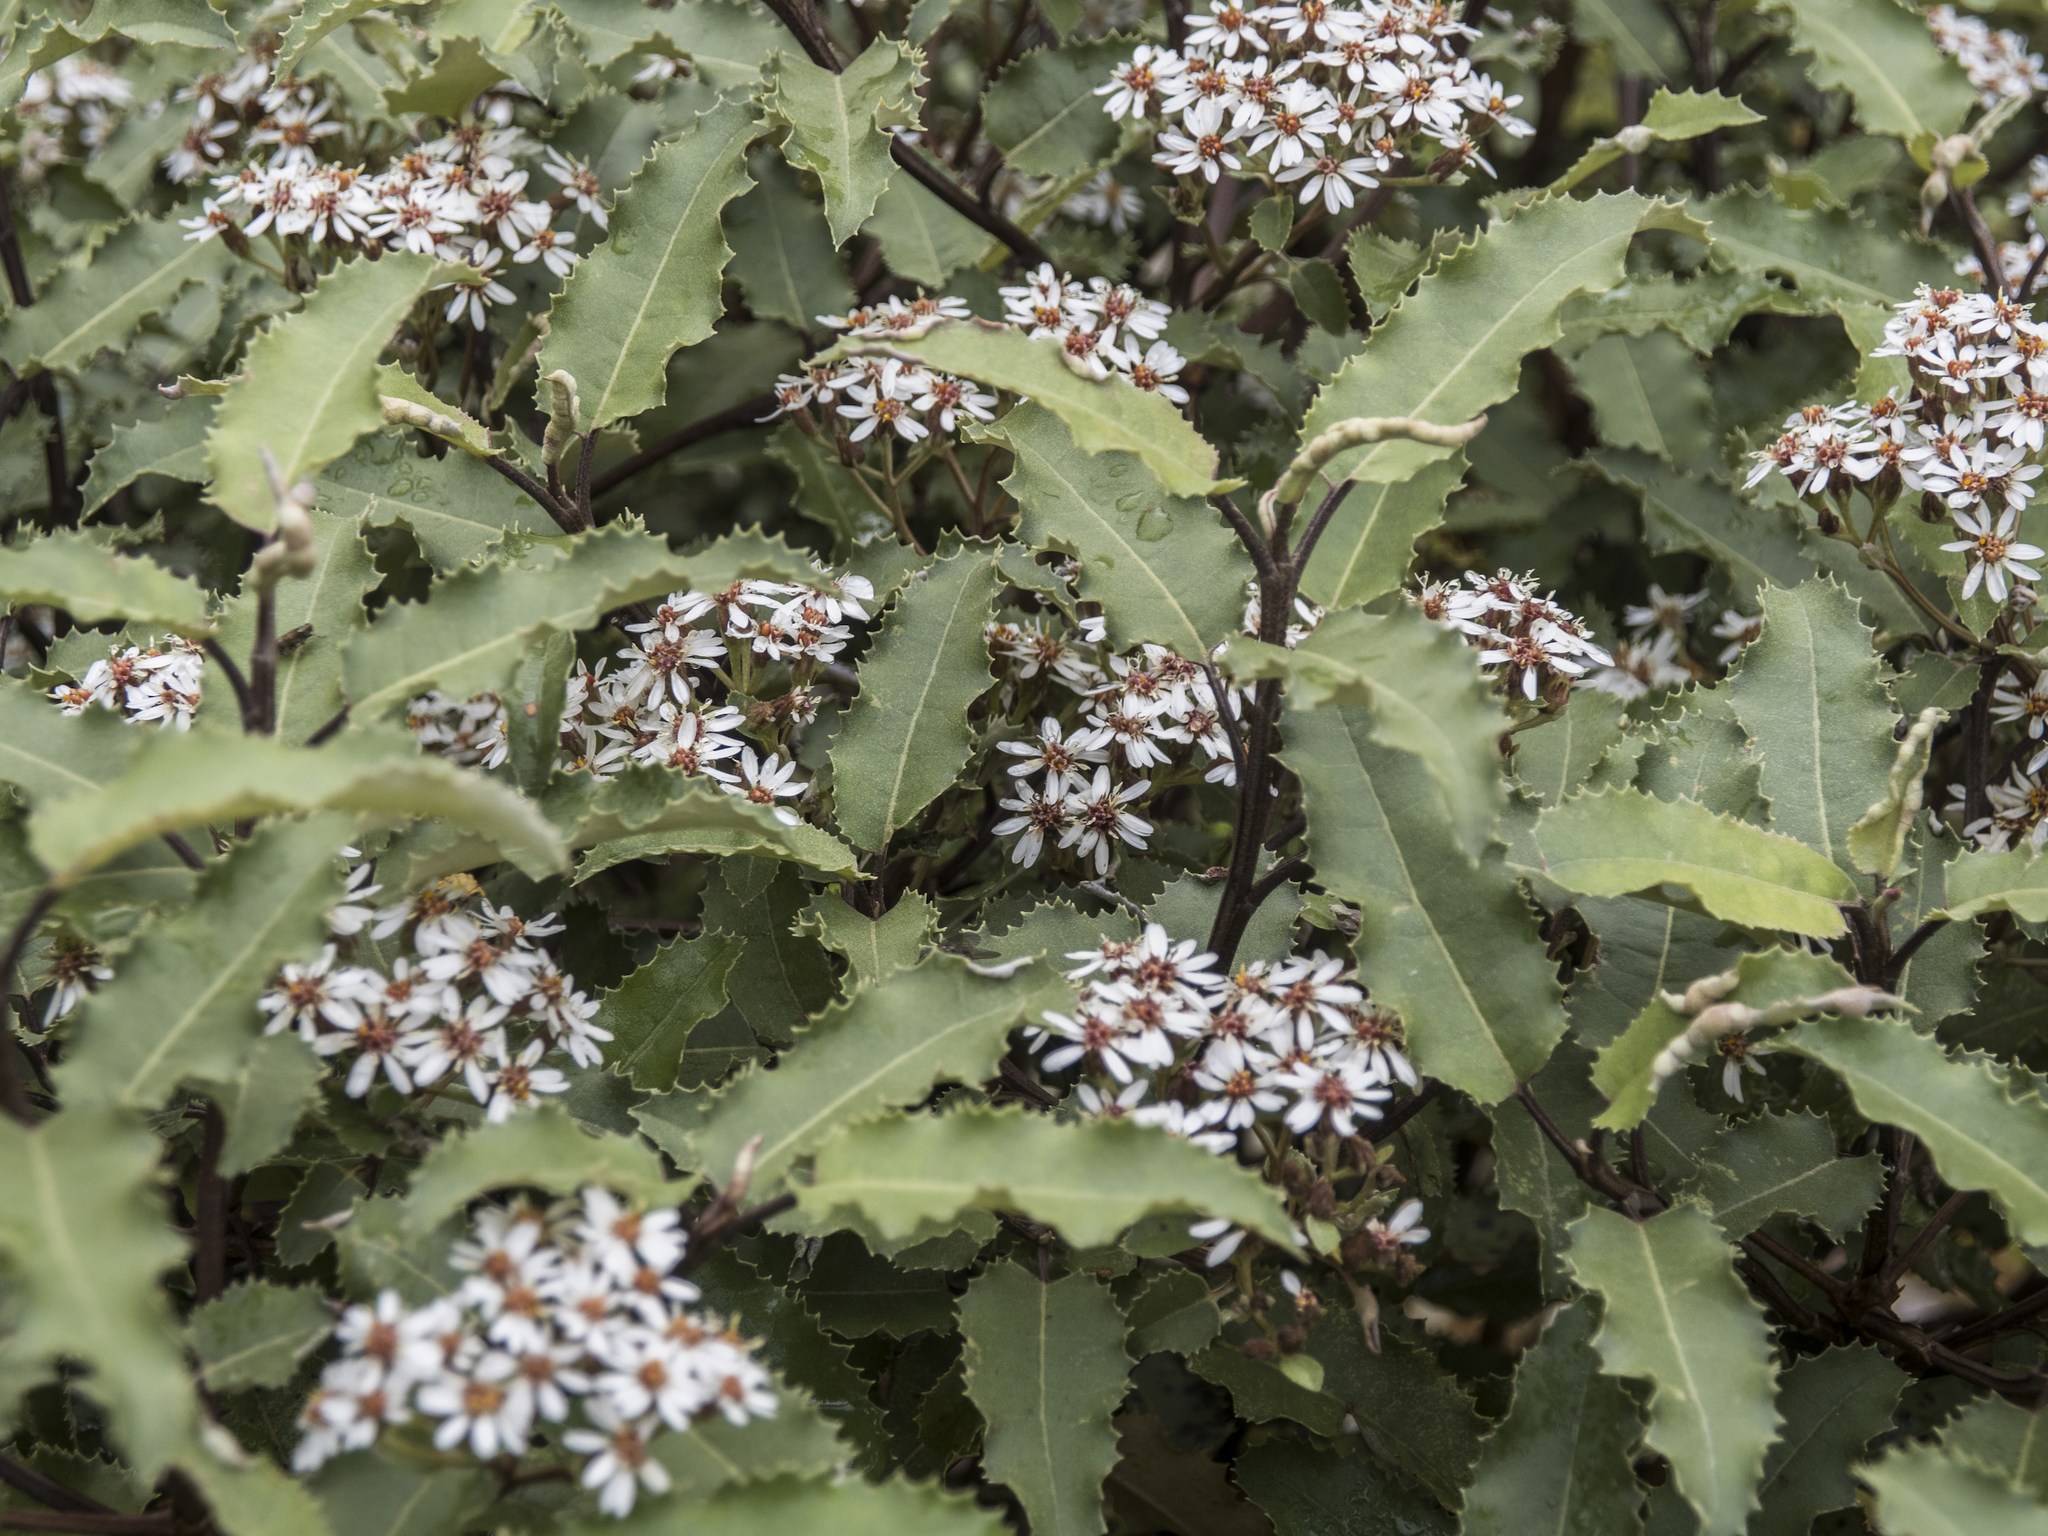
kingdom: Plantae
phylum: Tracheophyta
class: Magnoliopsida
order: Asterales
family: Asteraceae
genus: Olearia
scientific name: Olearia ilicifolia
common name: Maori-holly
